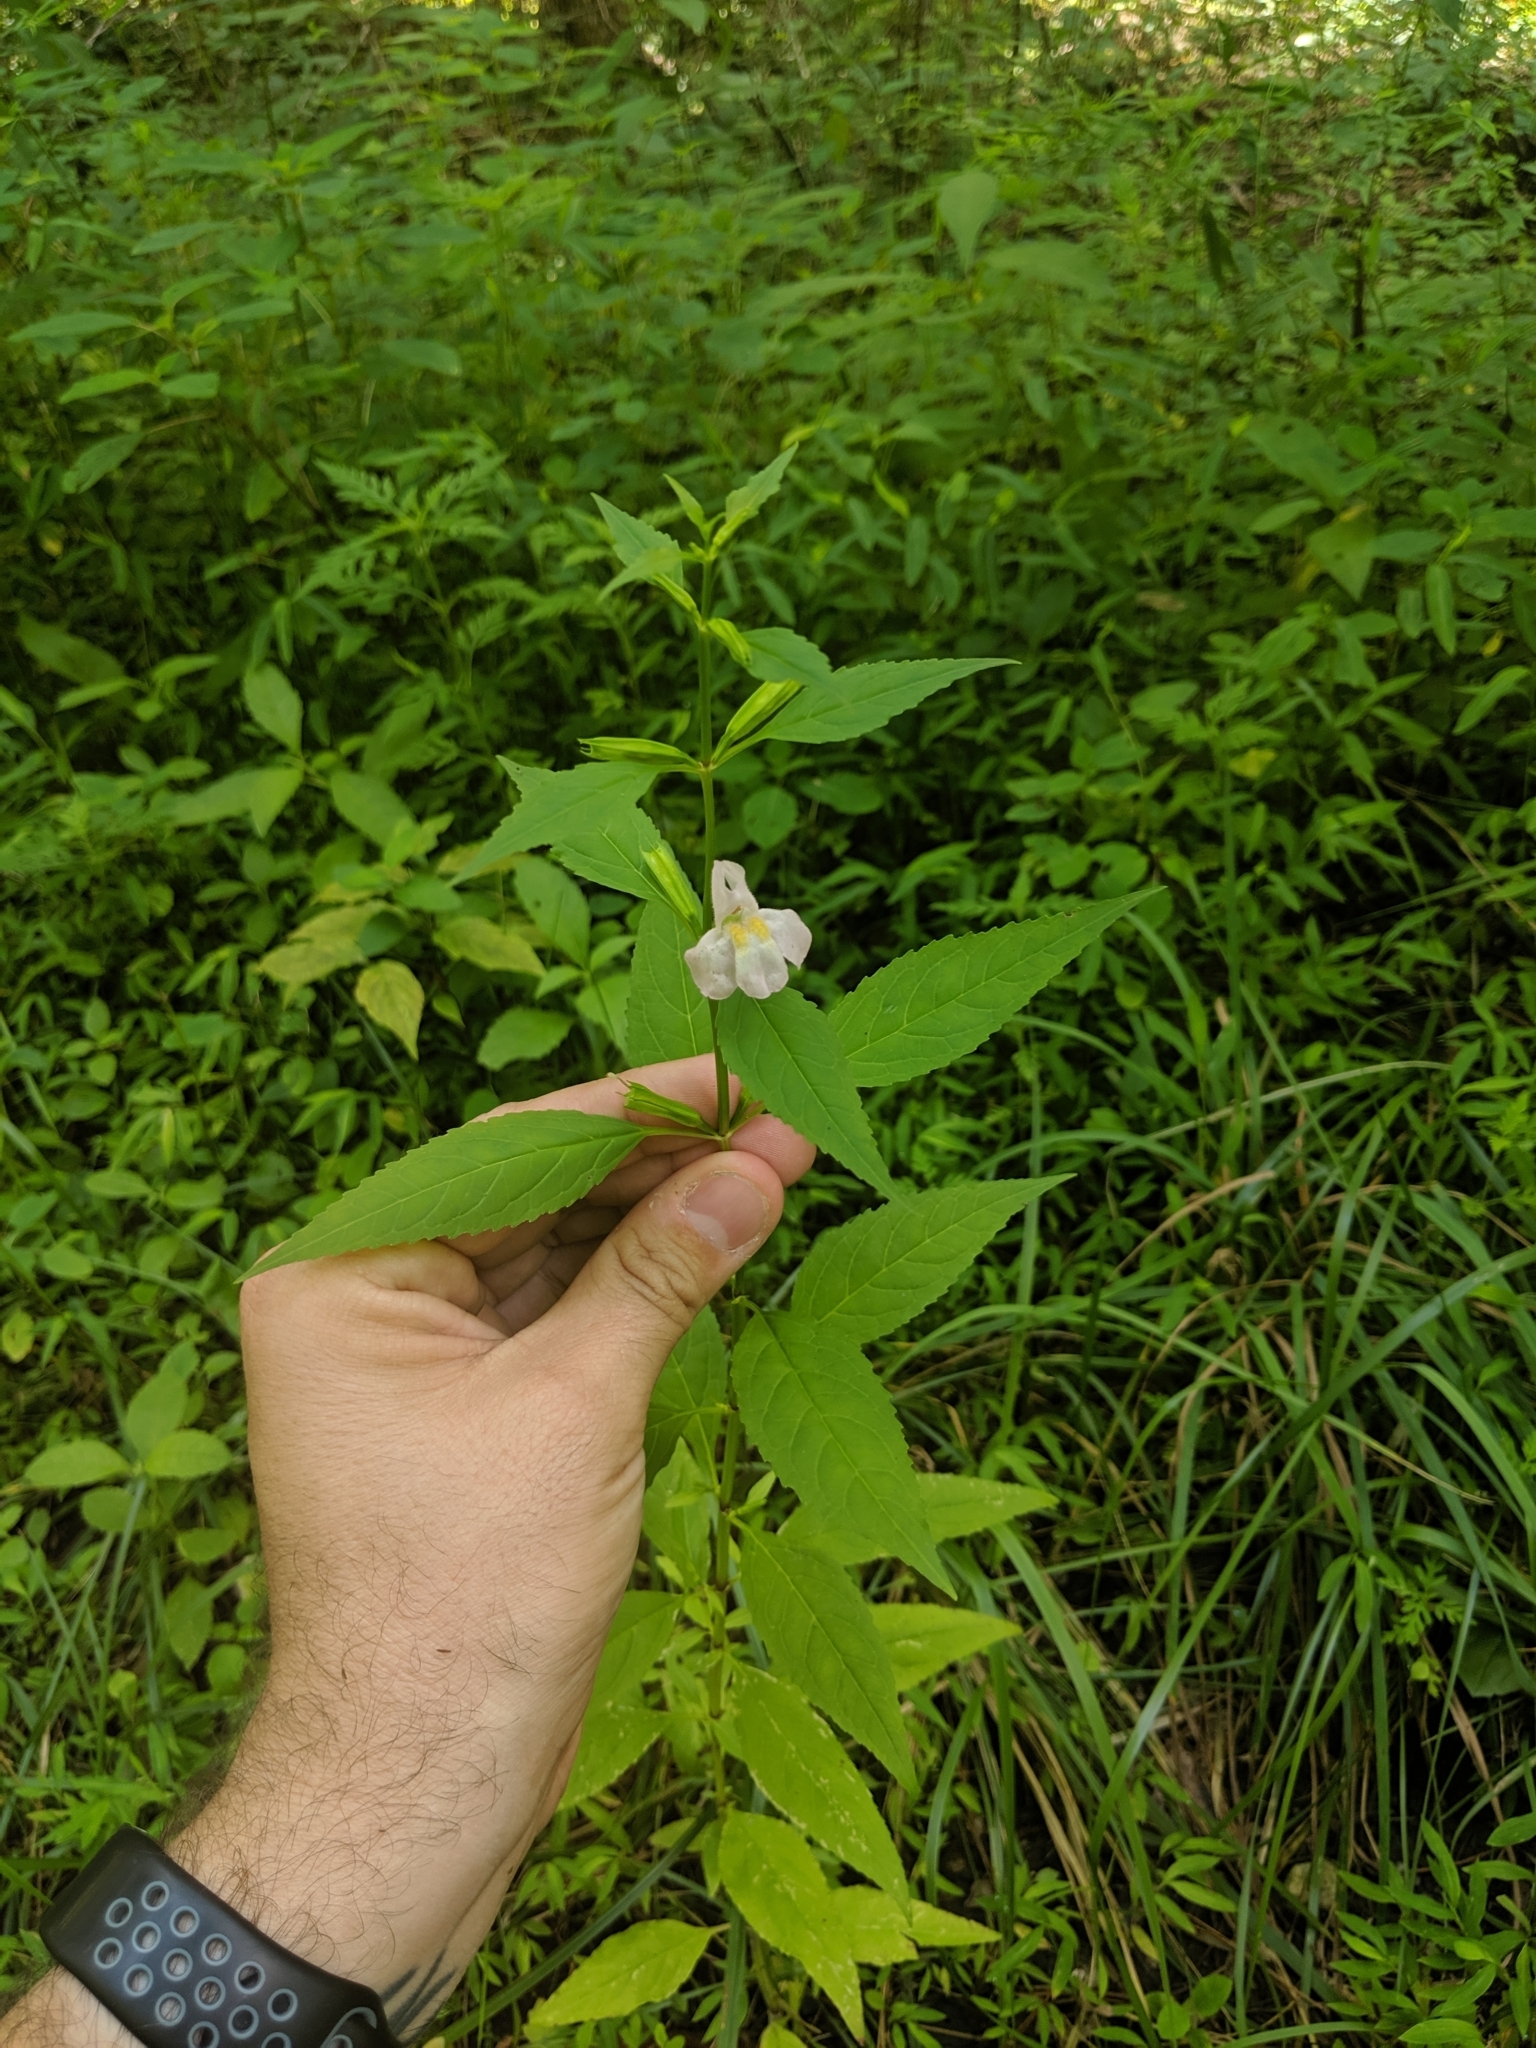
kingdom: Plantae
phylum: Tracheophyta
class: Magnoliopsida
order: Lamiales
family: Phrymaceae
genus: Mimulus
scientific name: Mimulus alatus
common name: Sharp-wing monkey-flower
